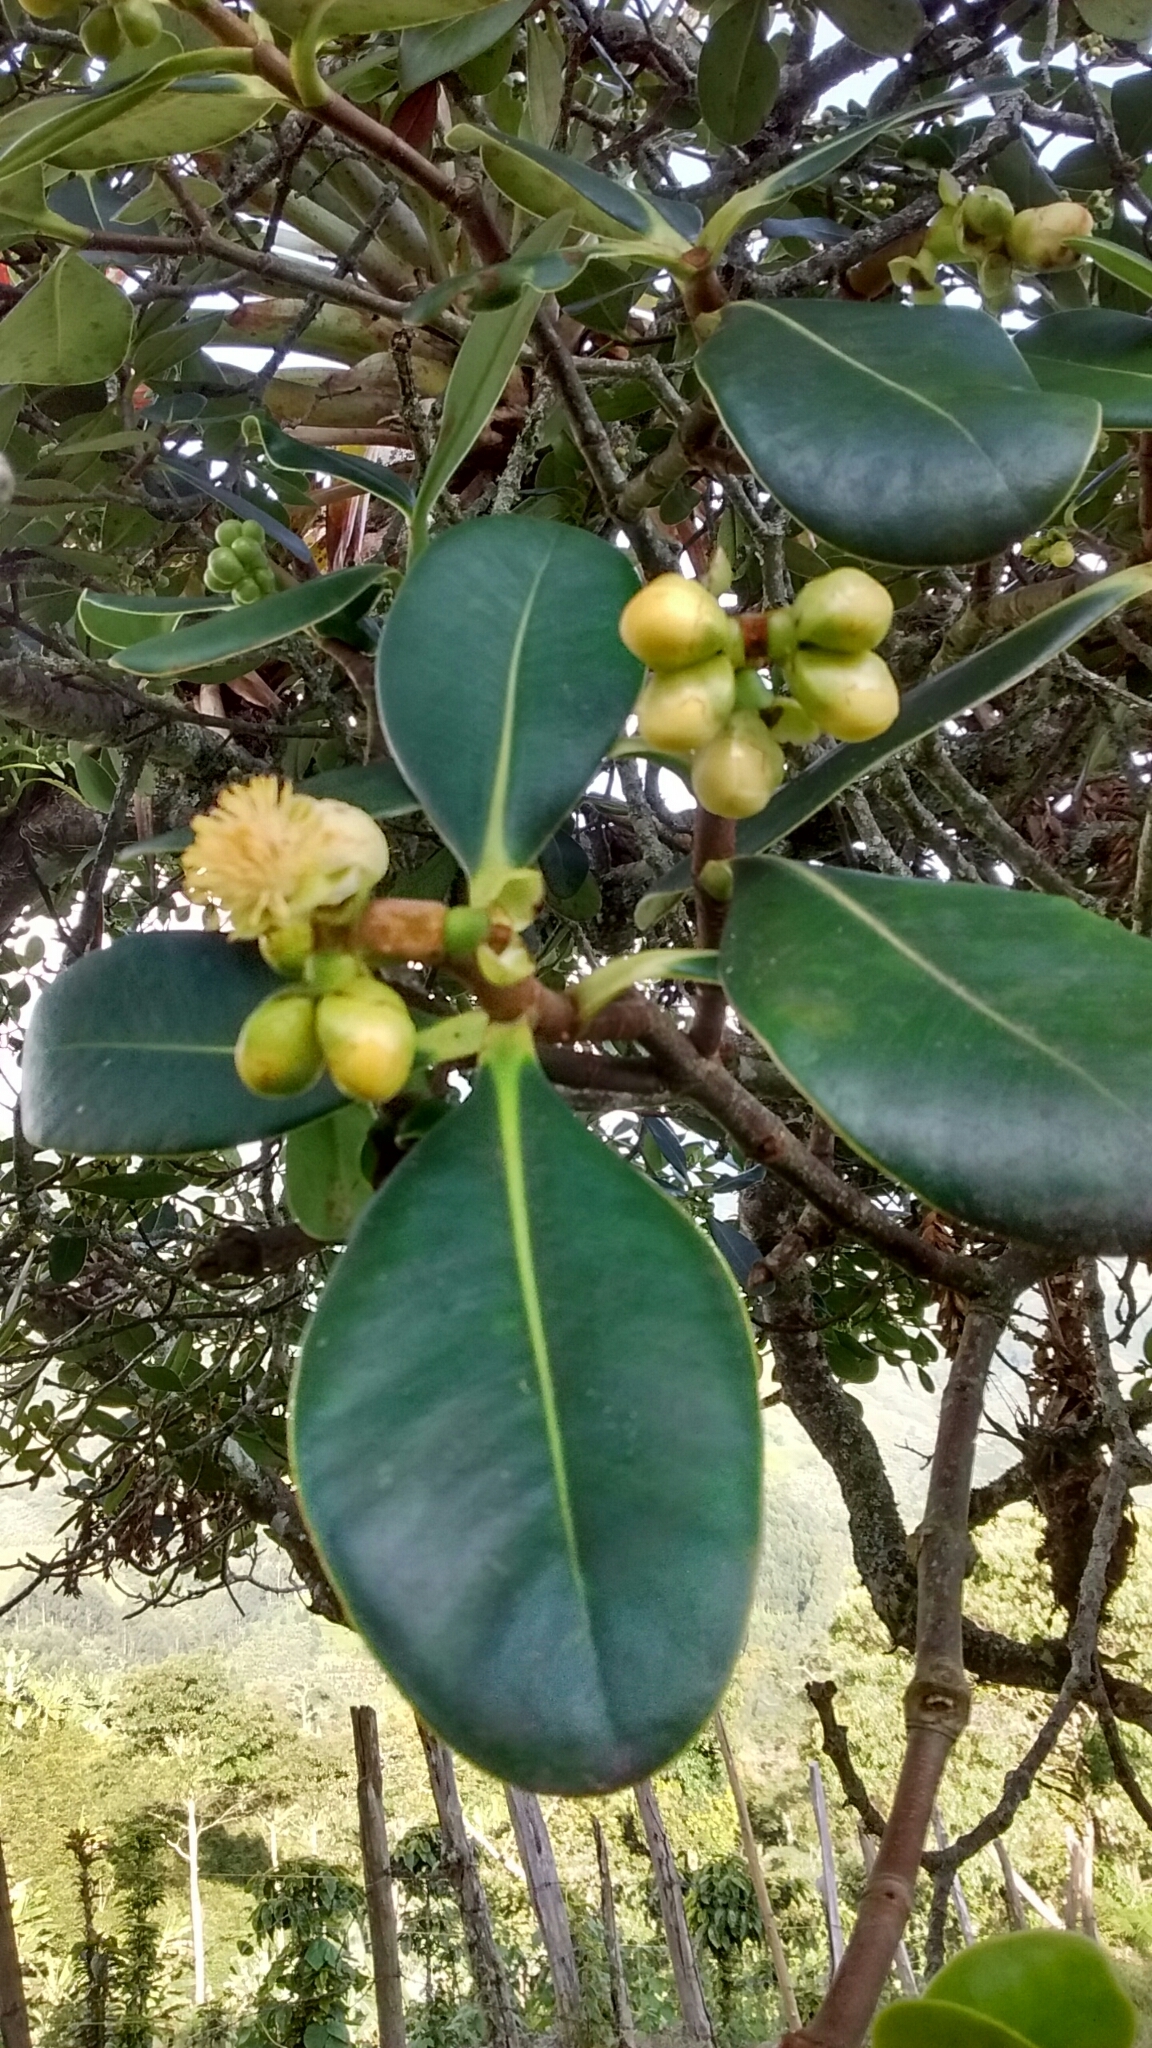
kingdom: Plantae
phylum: Tracheophyta
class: Magnoliopsida
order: Malpighiales
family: Clusiaceae
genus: Clusia
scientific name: Clusia multiflora
